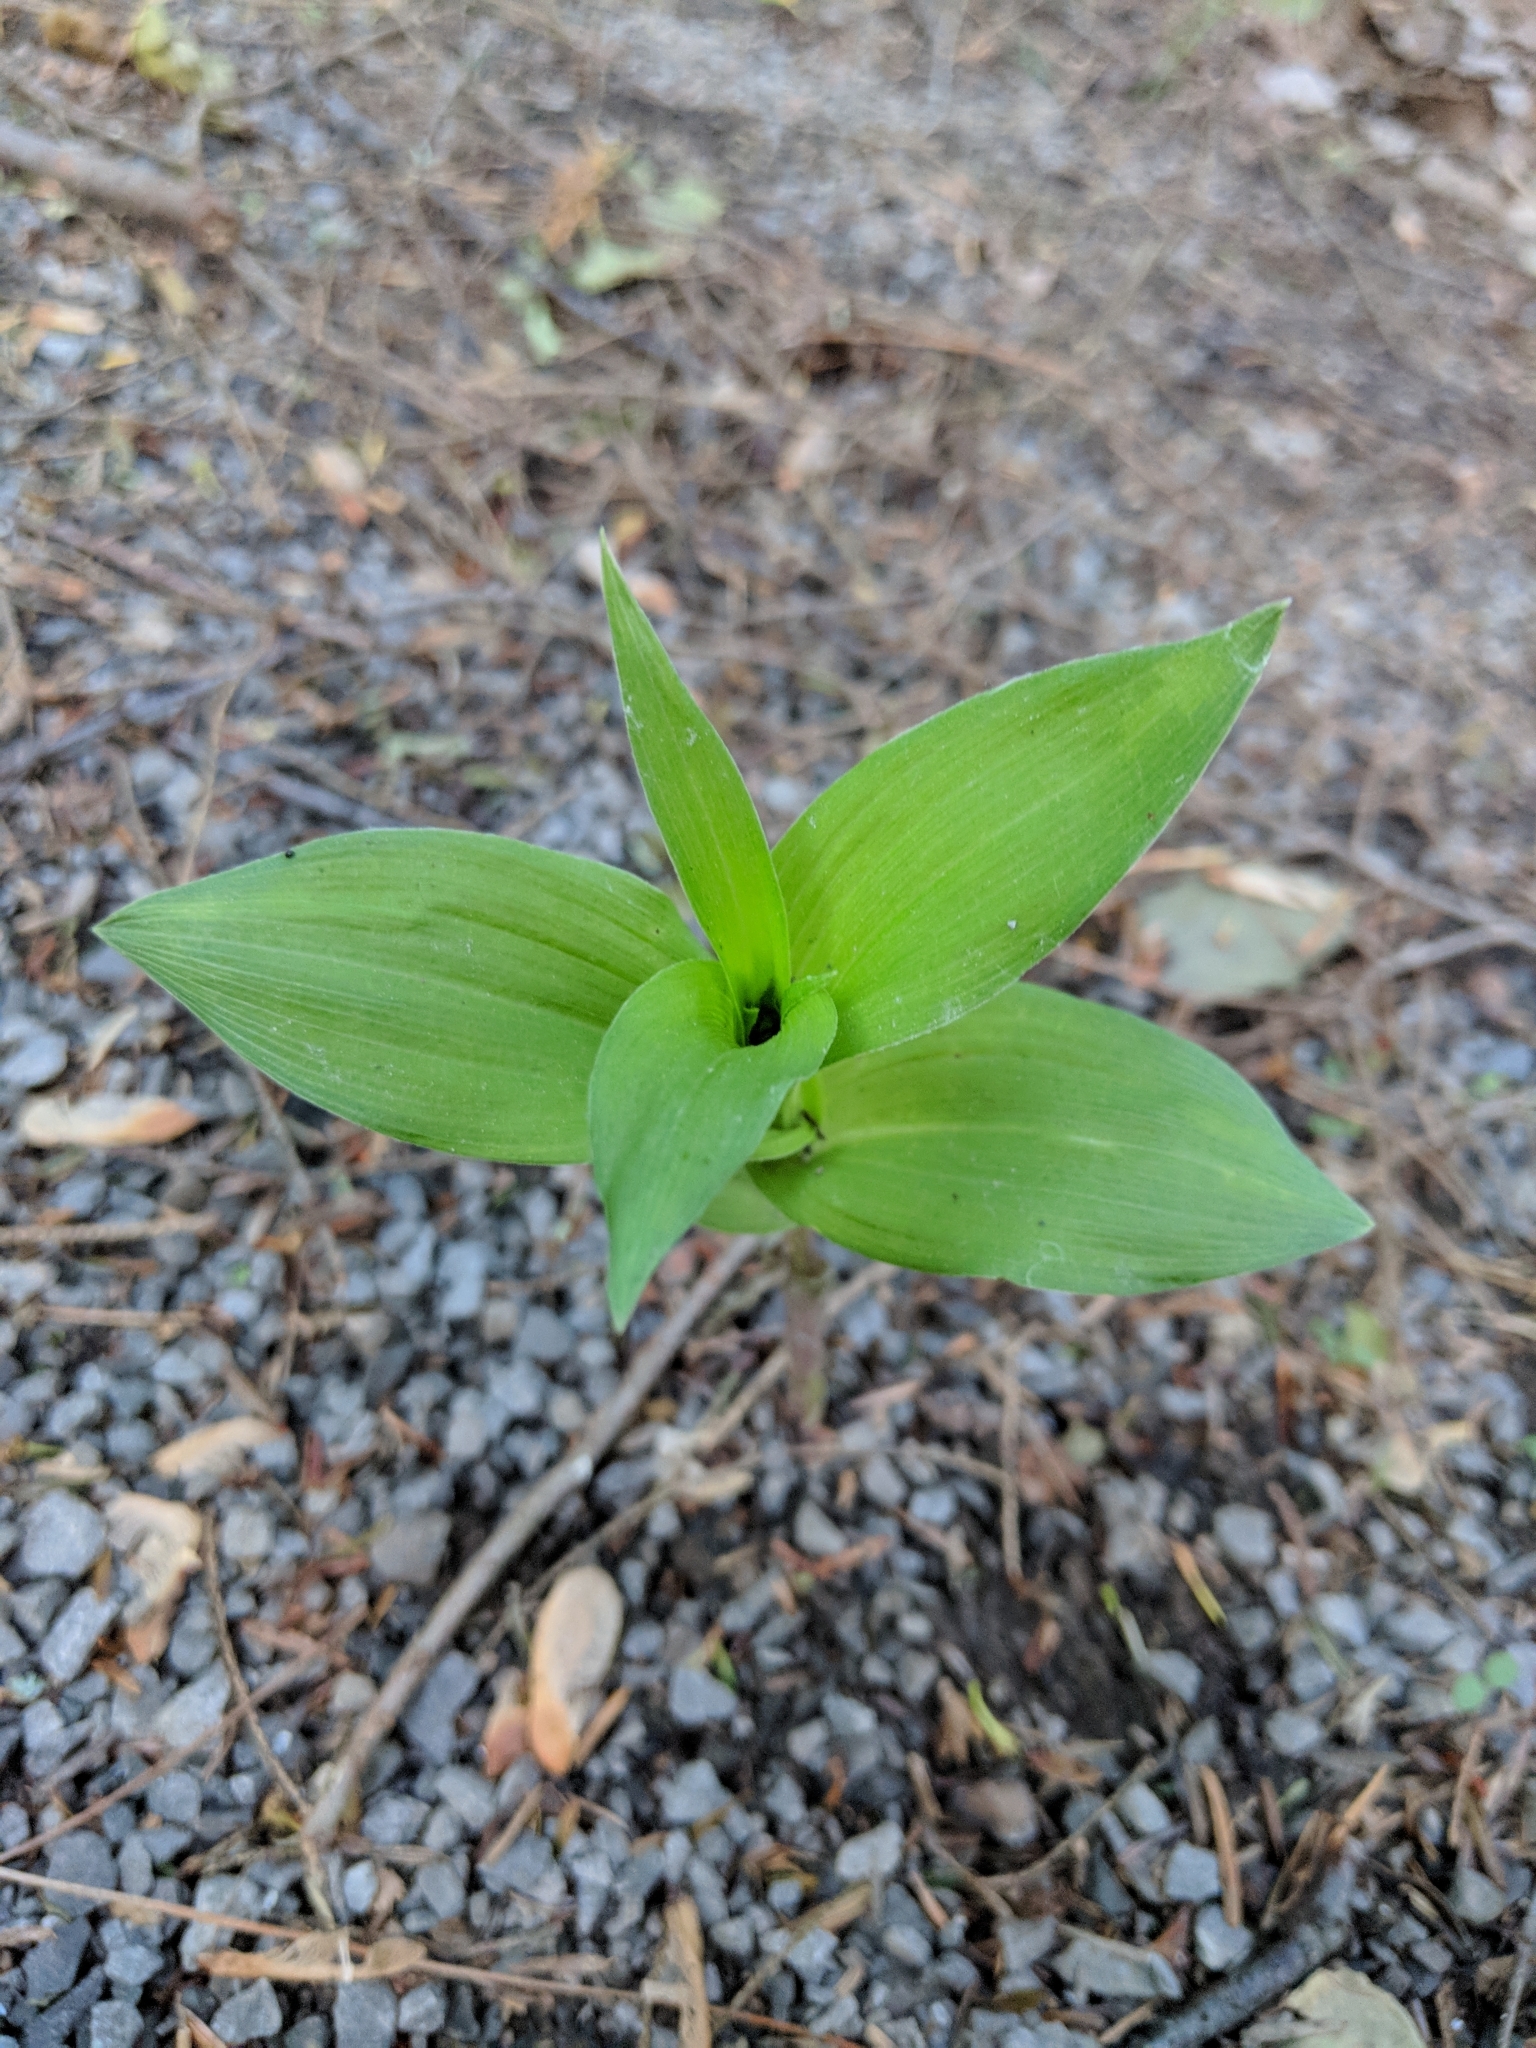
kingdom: Plantae
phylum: Tracheophyta
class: Liliopsida
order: Asparagales
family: Orchidaceae
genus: Epipactis
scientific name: Epipactis helleborine
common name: Broad-leaved helleborine
